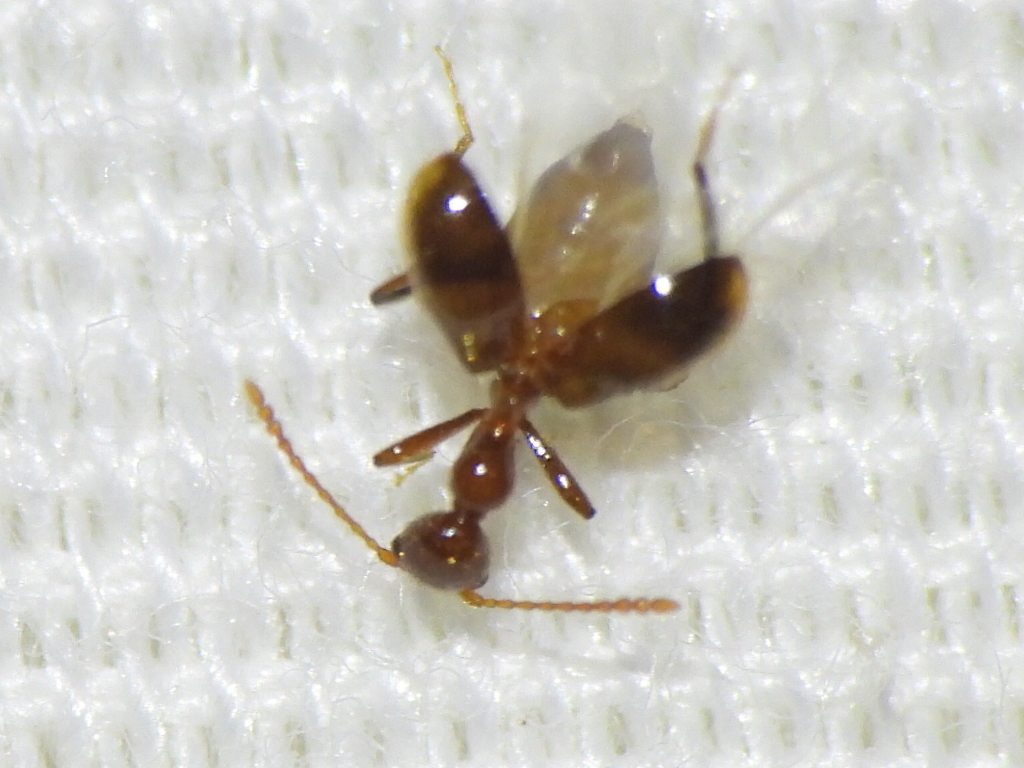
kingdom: Animalia
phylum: Arthropoda
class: Insecta
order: Coleoptera
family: Anthicidae
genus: Acanthinus
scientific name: Acanthinus
